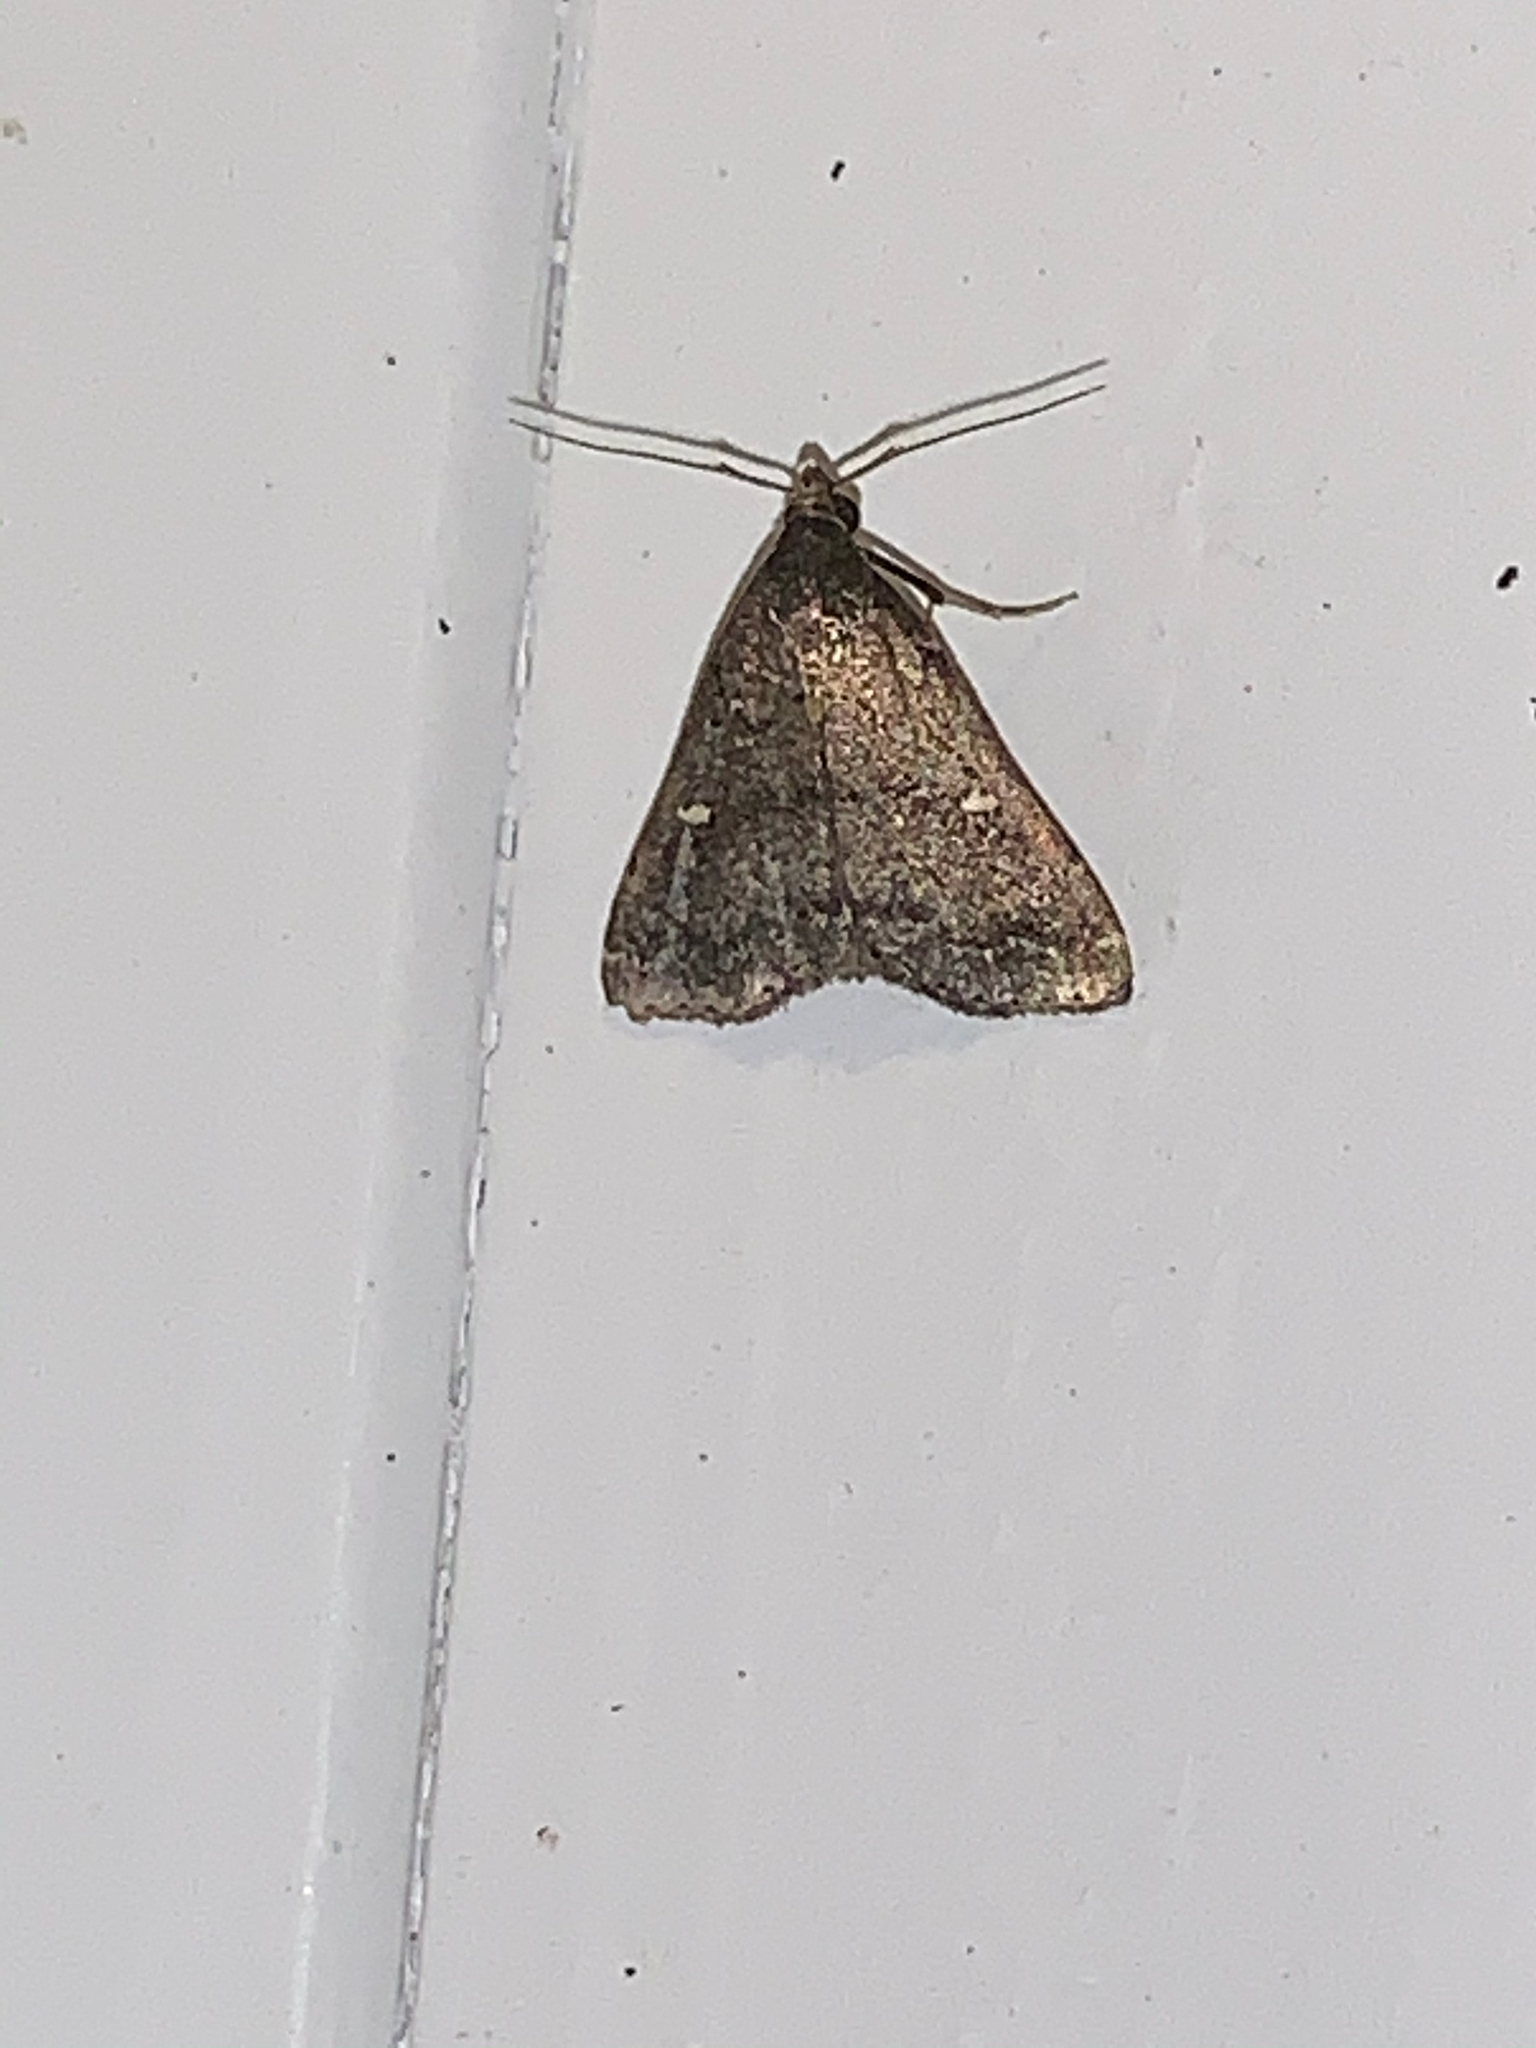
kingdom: Animalia
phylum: Arthropoda
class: Insecta
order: Lepidoptera
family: Erebidae
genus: Tetanolita
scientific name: Tetanolita mynesalis
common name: Smoky tetanolita moth
